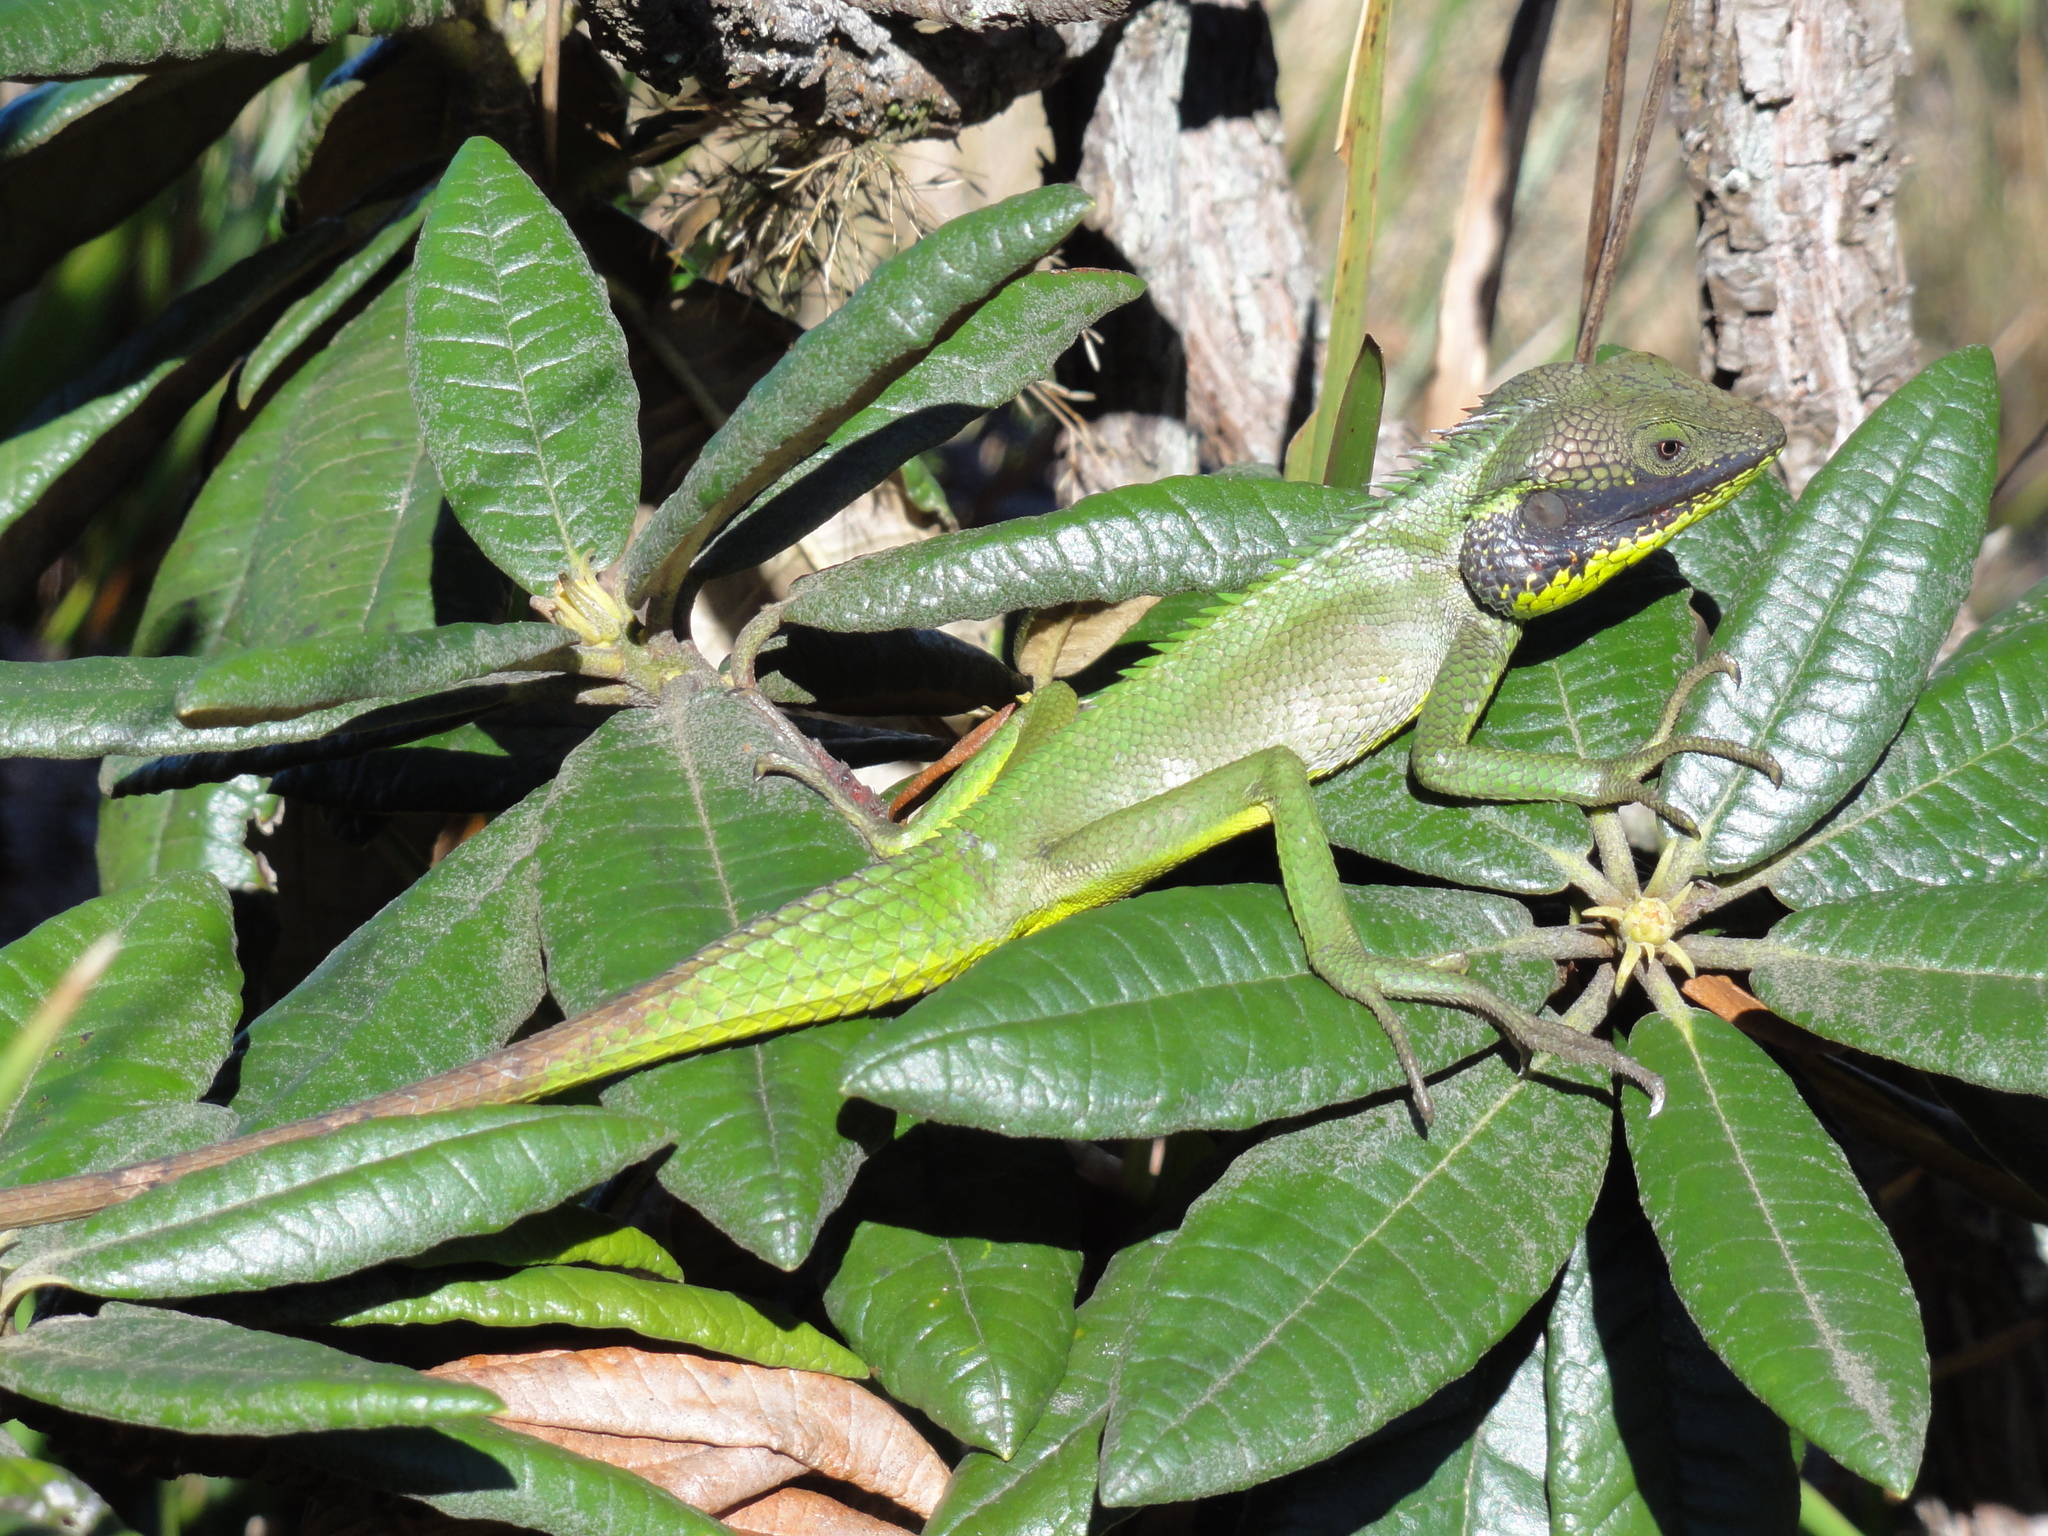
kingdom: Animalia
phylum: Chordata
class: Squamata
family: Agamidae
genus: Calotes
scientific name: Calotes nigrilabris
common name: Black-cheek lizard
